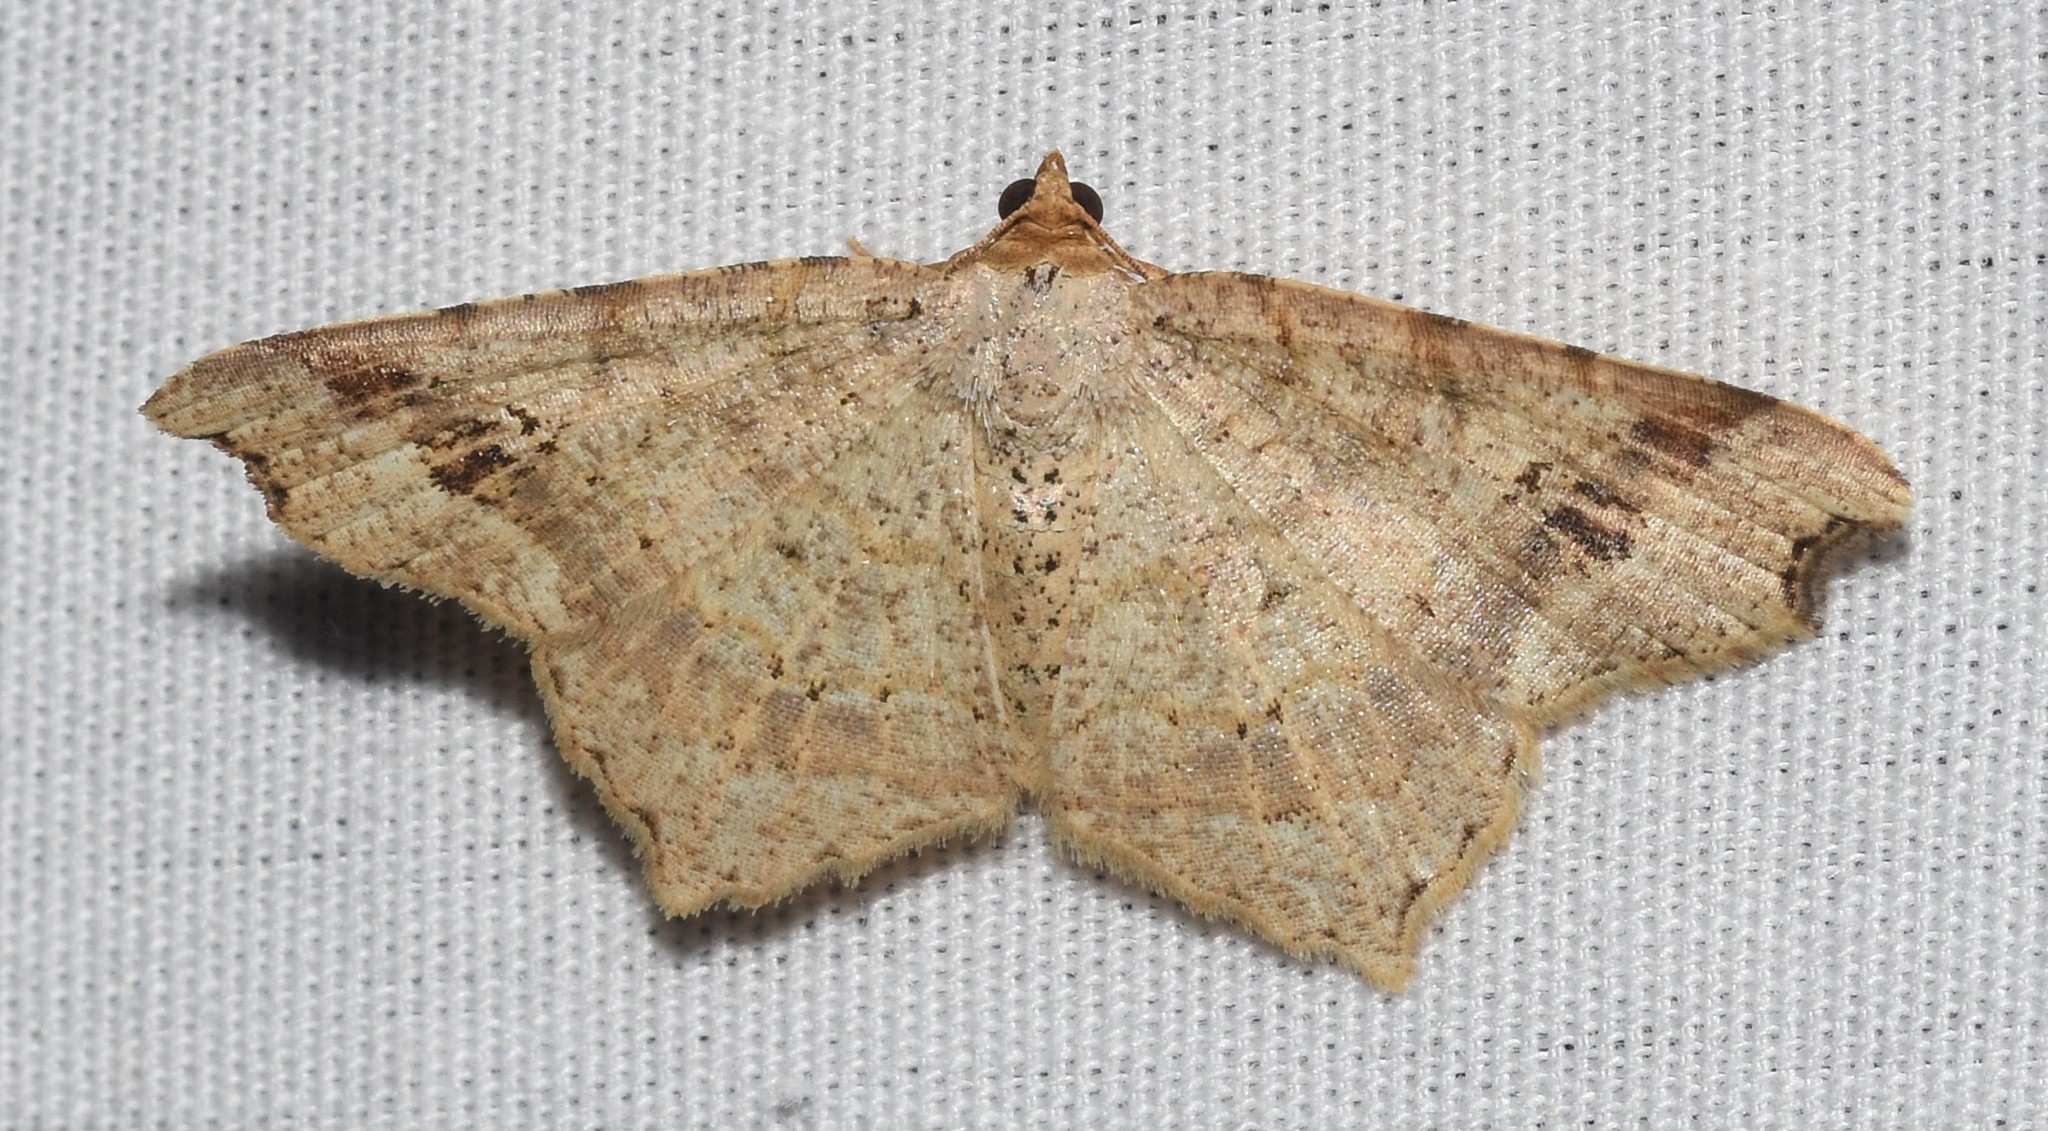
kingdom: Animalia
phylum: Arthropoda
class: Insecta
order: Lepidoptera
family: Geometridae
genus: Macaria
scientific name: Macaria aemulataria
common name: Common angle
